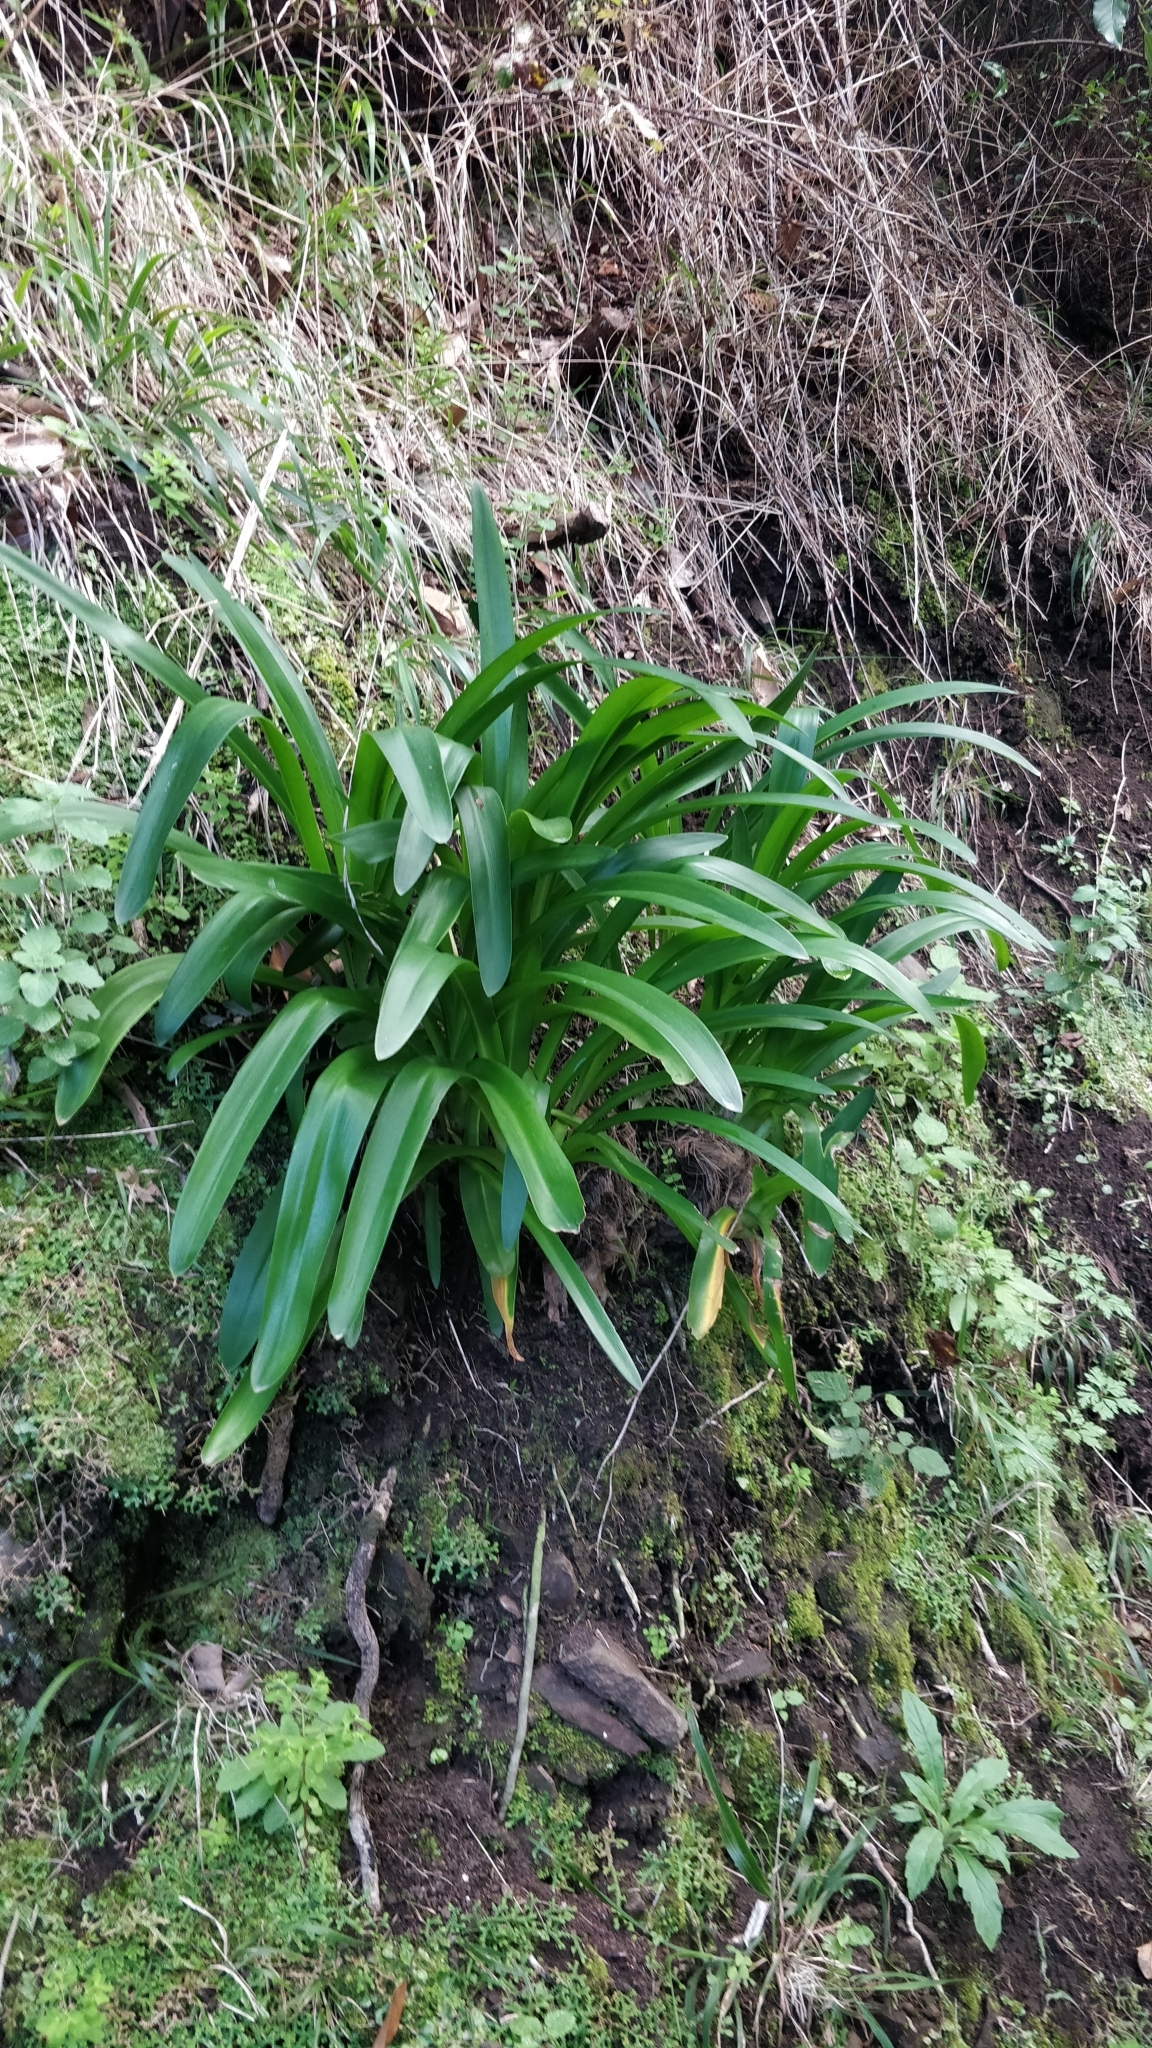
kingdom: Plantae
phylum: Tracheophyta
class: Liliopsida
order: Asparagales
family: Amaryllidaceae
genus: Agapanthus
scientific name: Agapanthus praecox
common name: African-lily
